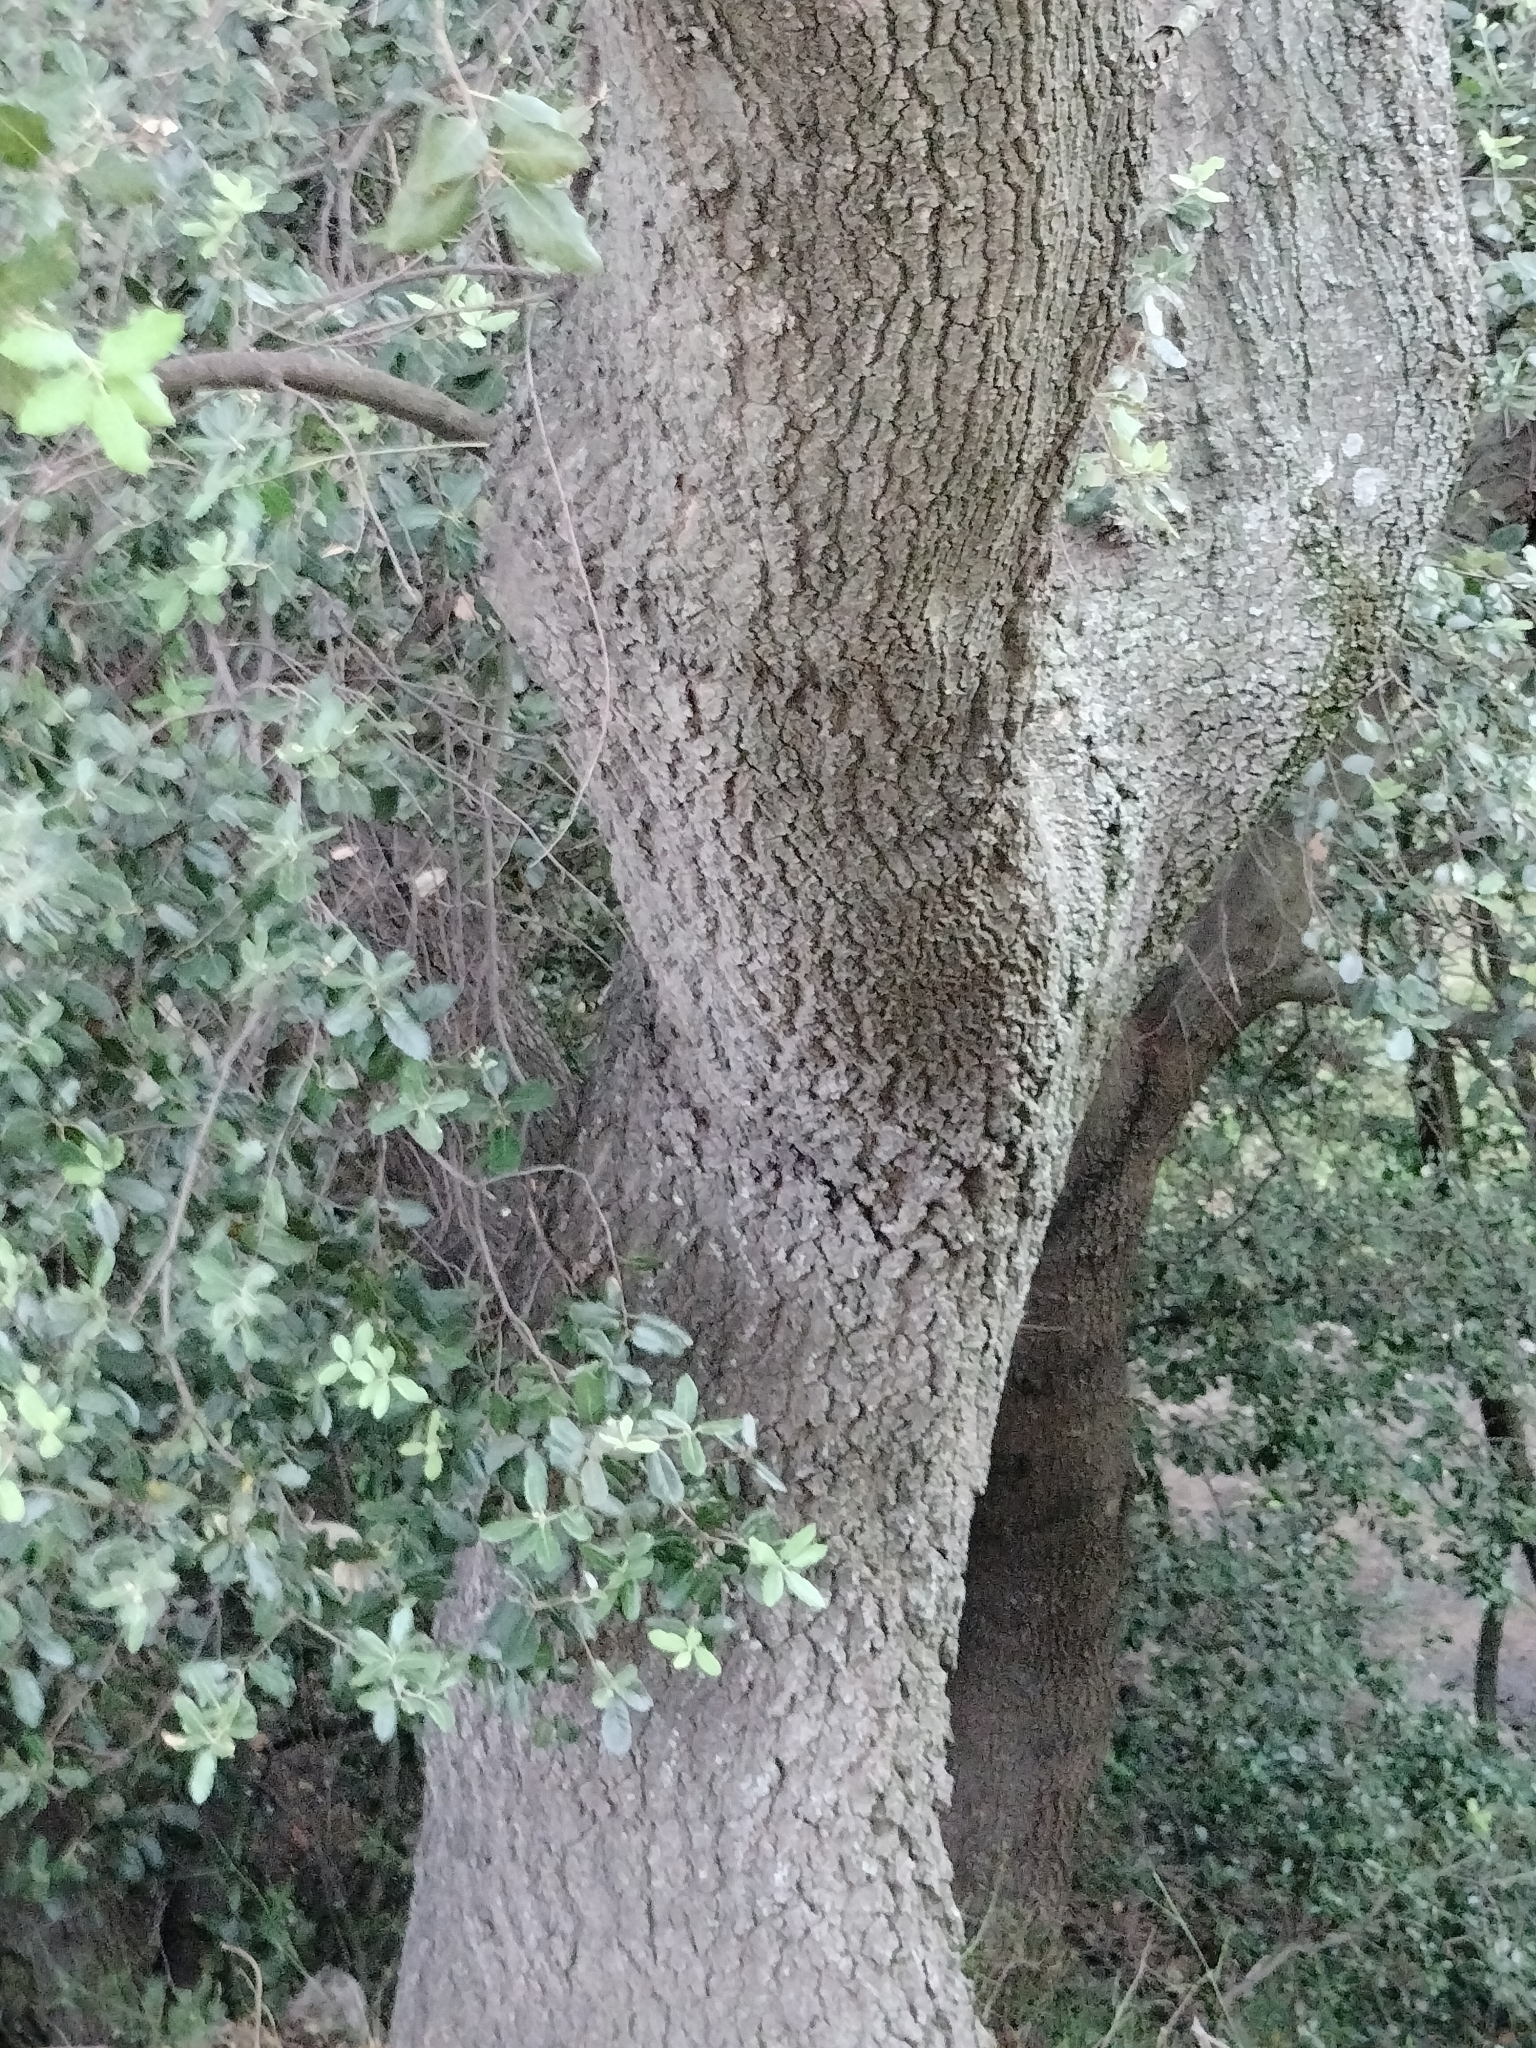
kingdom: Plantae
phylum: Tracheophyta
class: Magnoliopsida
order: Fagales
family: Fagaceae
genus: Quercus
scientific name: Quercus ilex
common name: Evergreen oak
